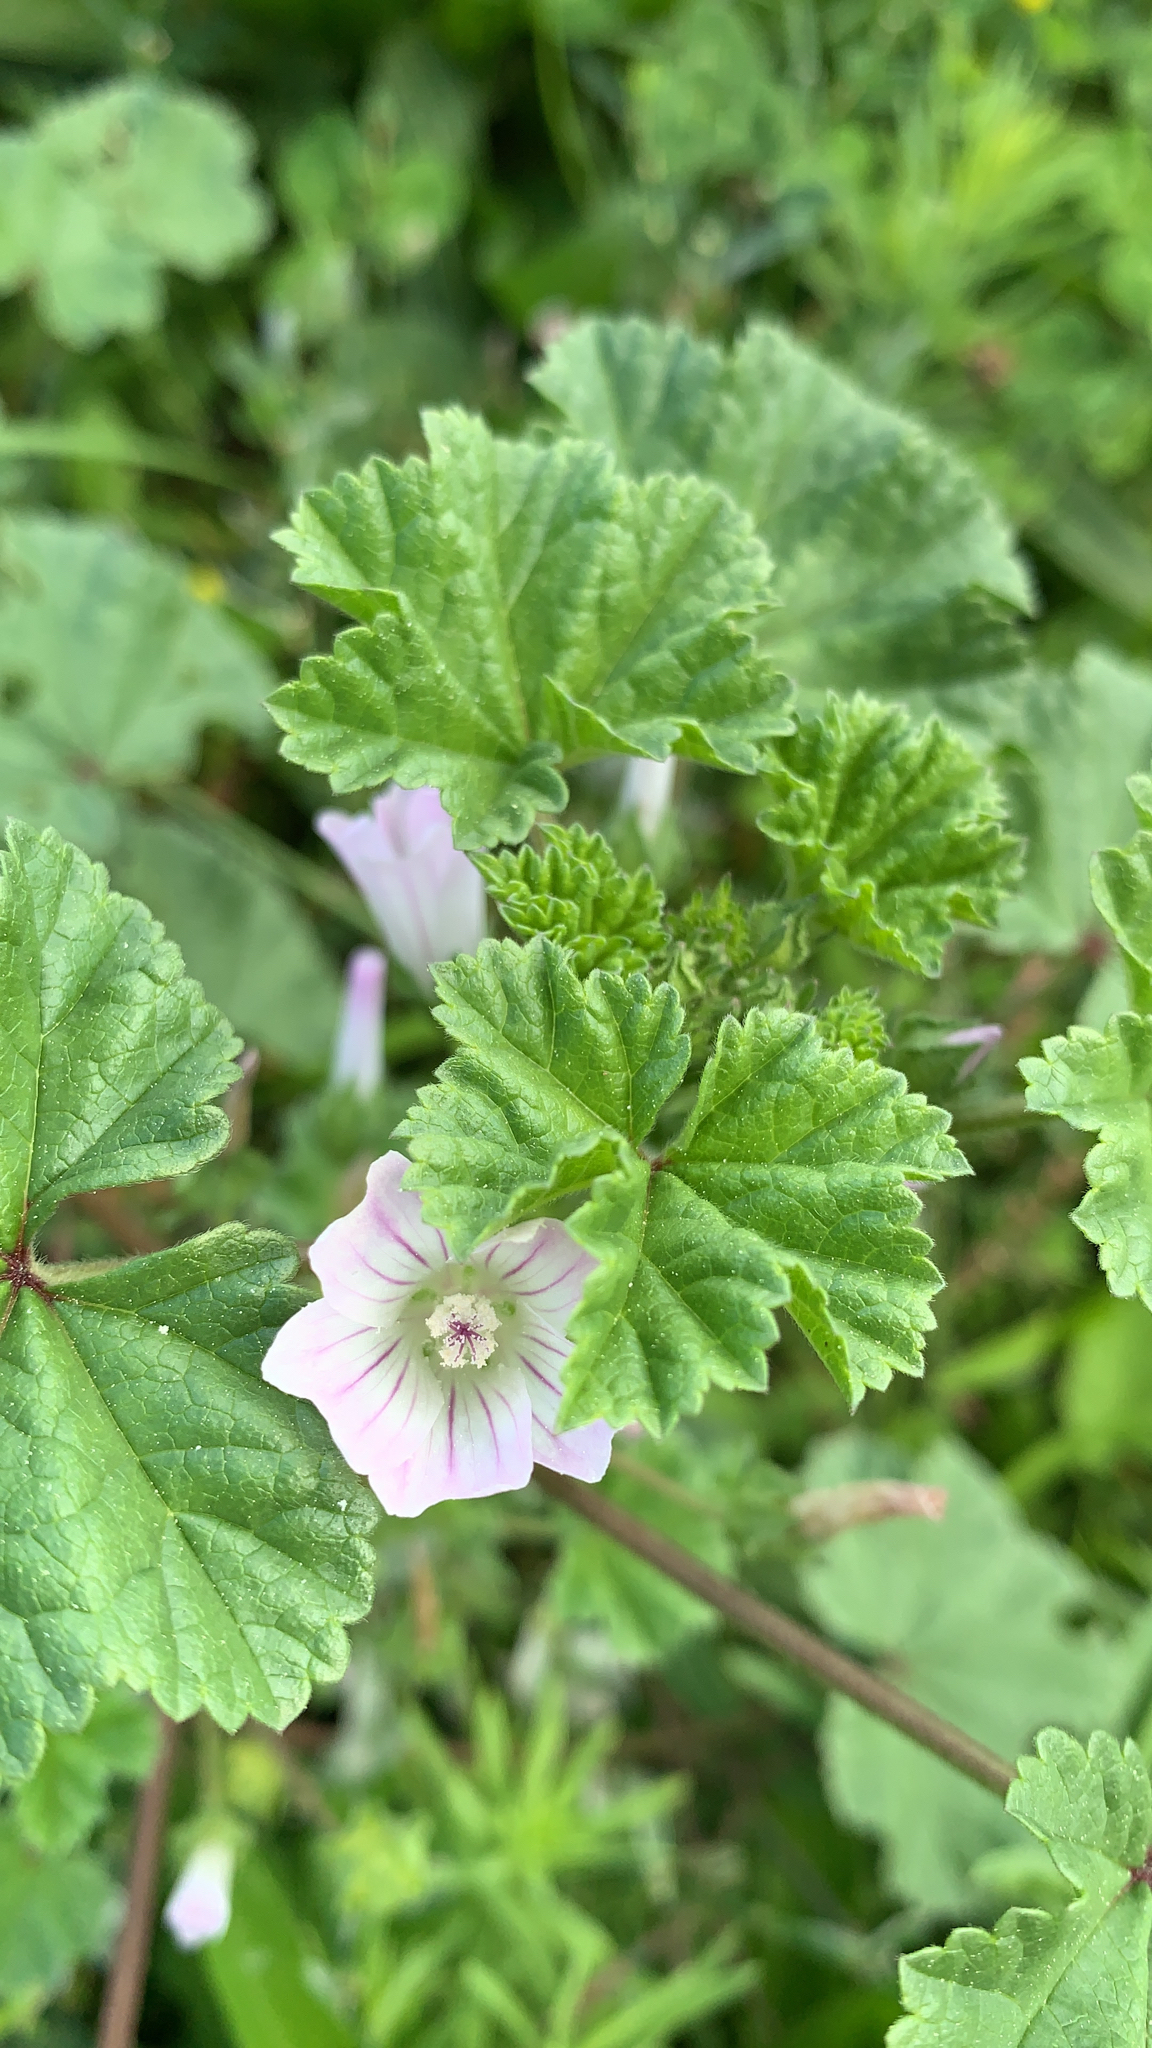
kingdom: Plantae
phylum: Tracheophyta
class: Magnoliopsida
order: Malvales
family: Malvaceae
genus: Malva
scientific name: Malva neglecta
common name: Common mallow
